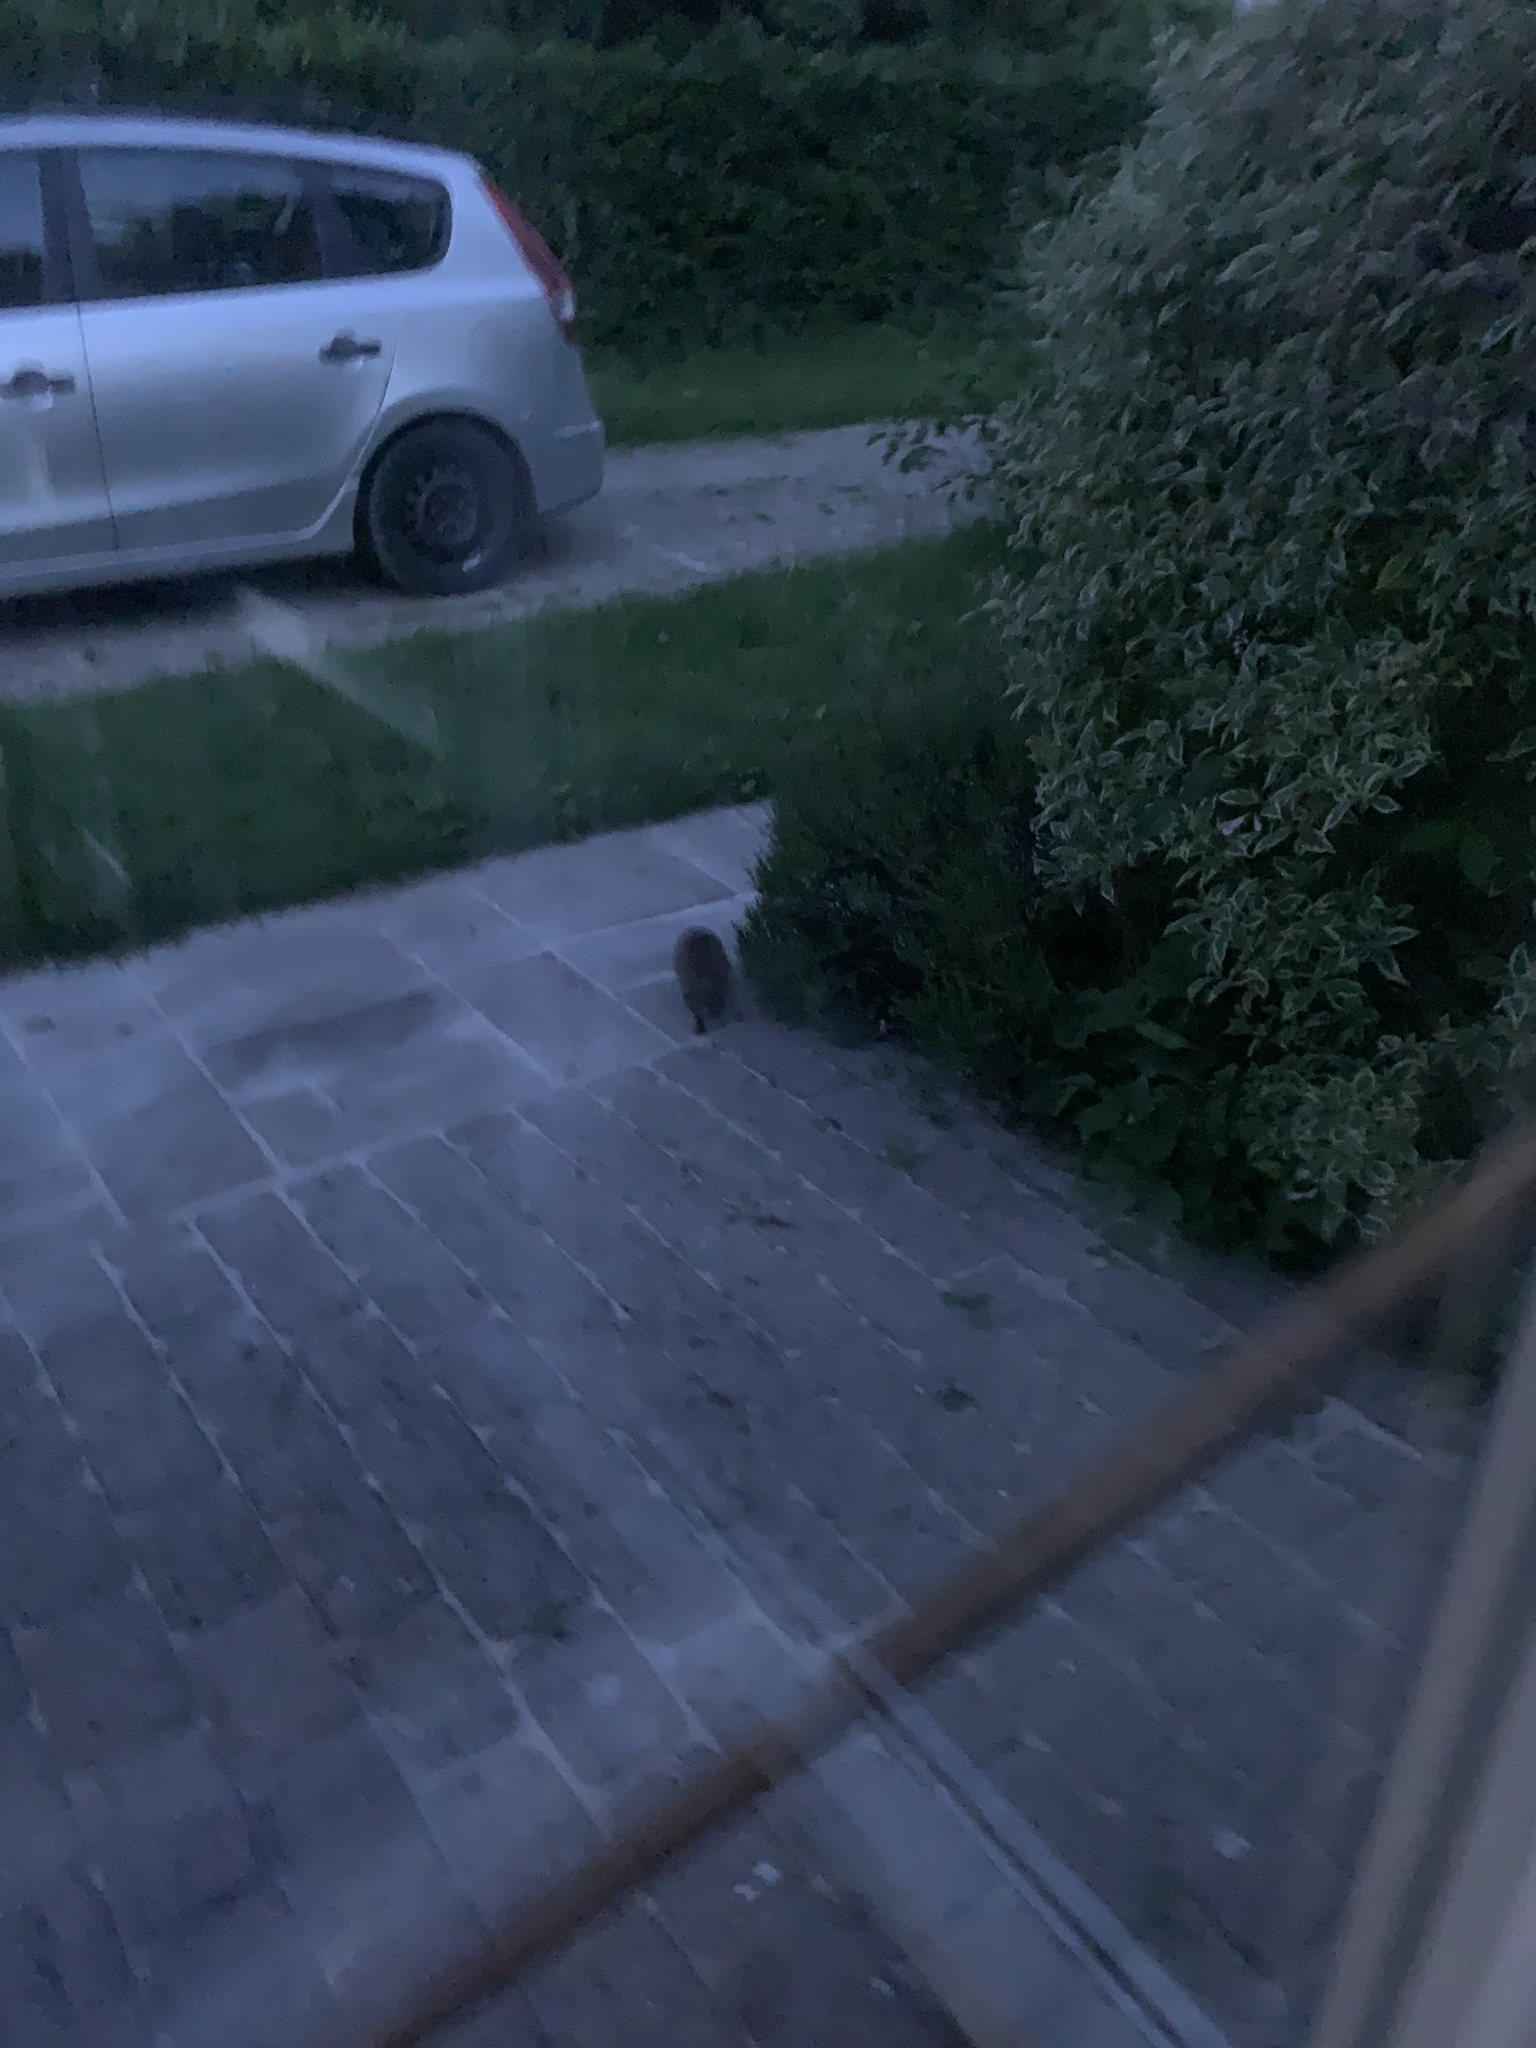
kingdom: Animalia
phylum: Chordata
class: Mammalia
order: Erinaceomorpha
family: Erinaceidae
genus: Erinaceus
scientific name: Erinaceus europaeus
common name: West european hedgehog
